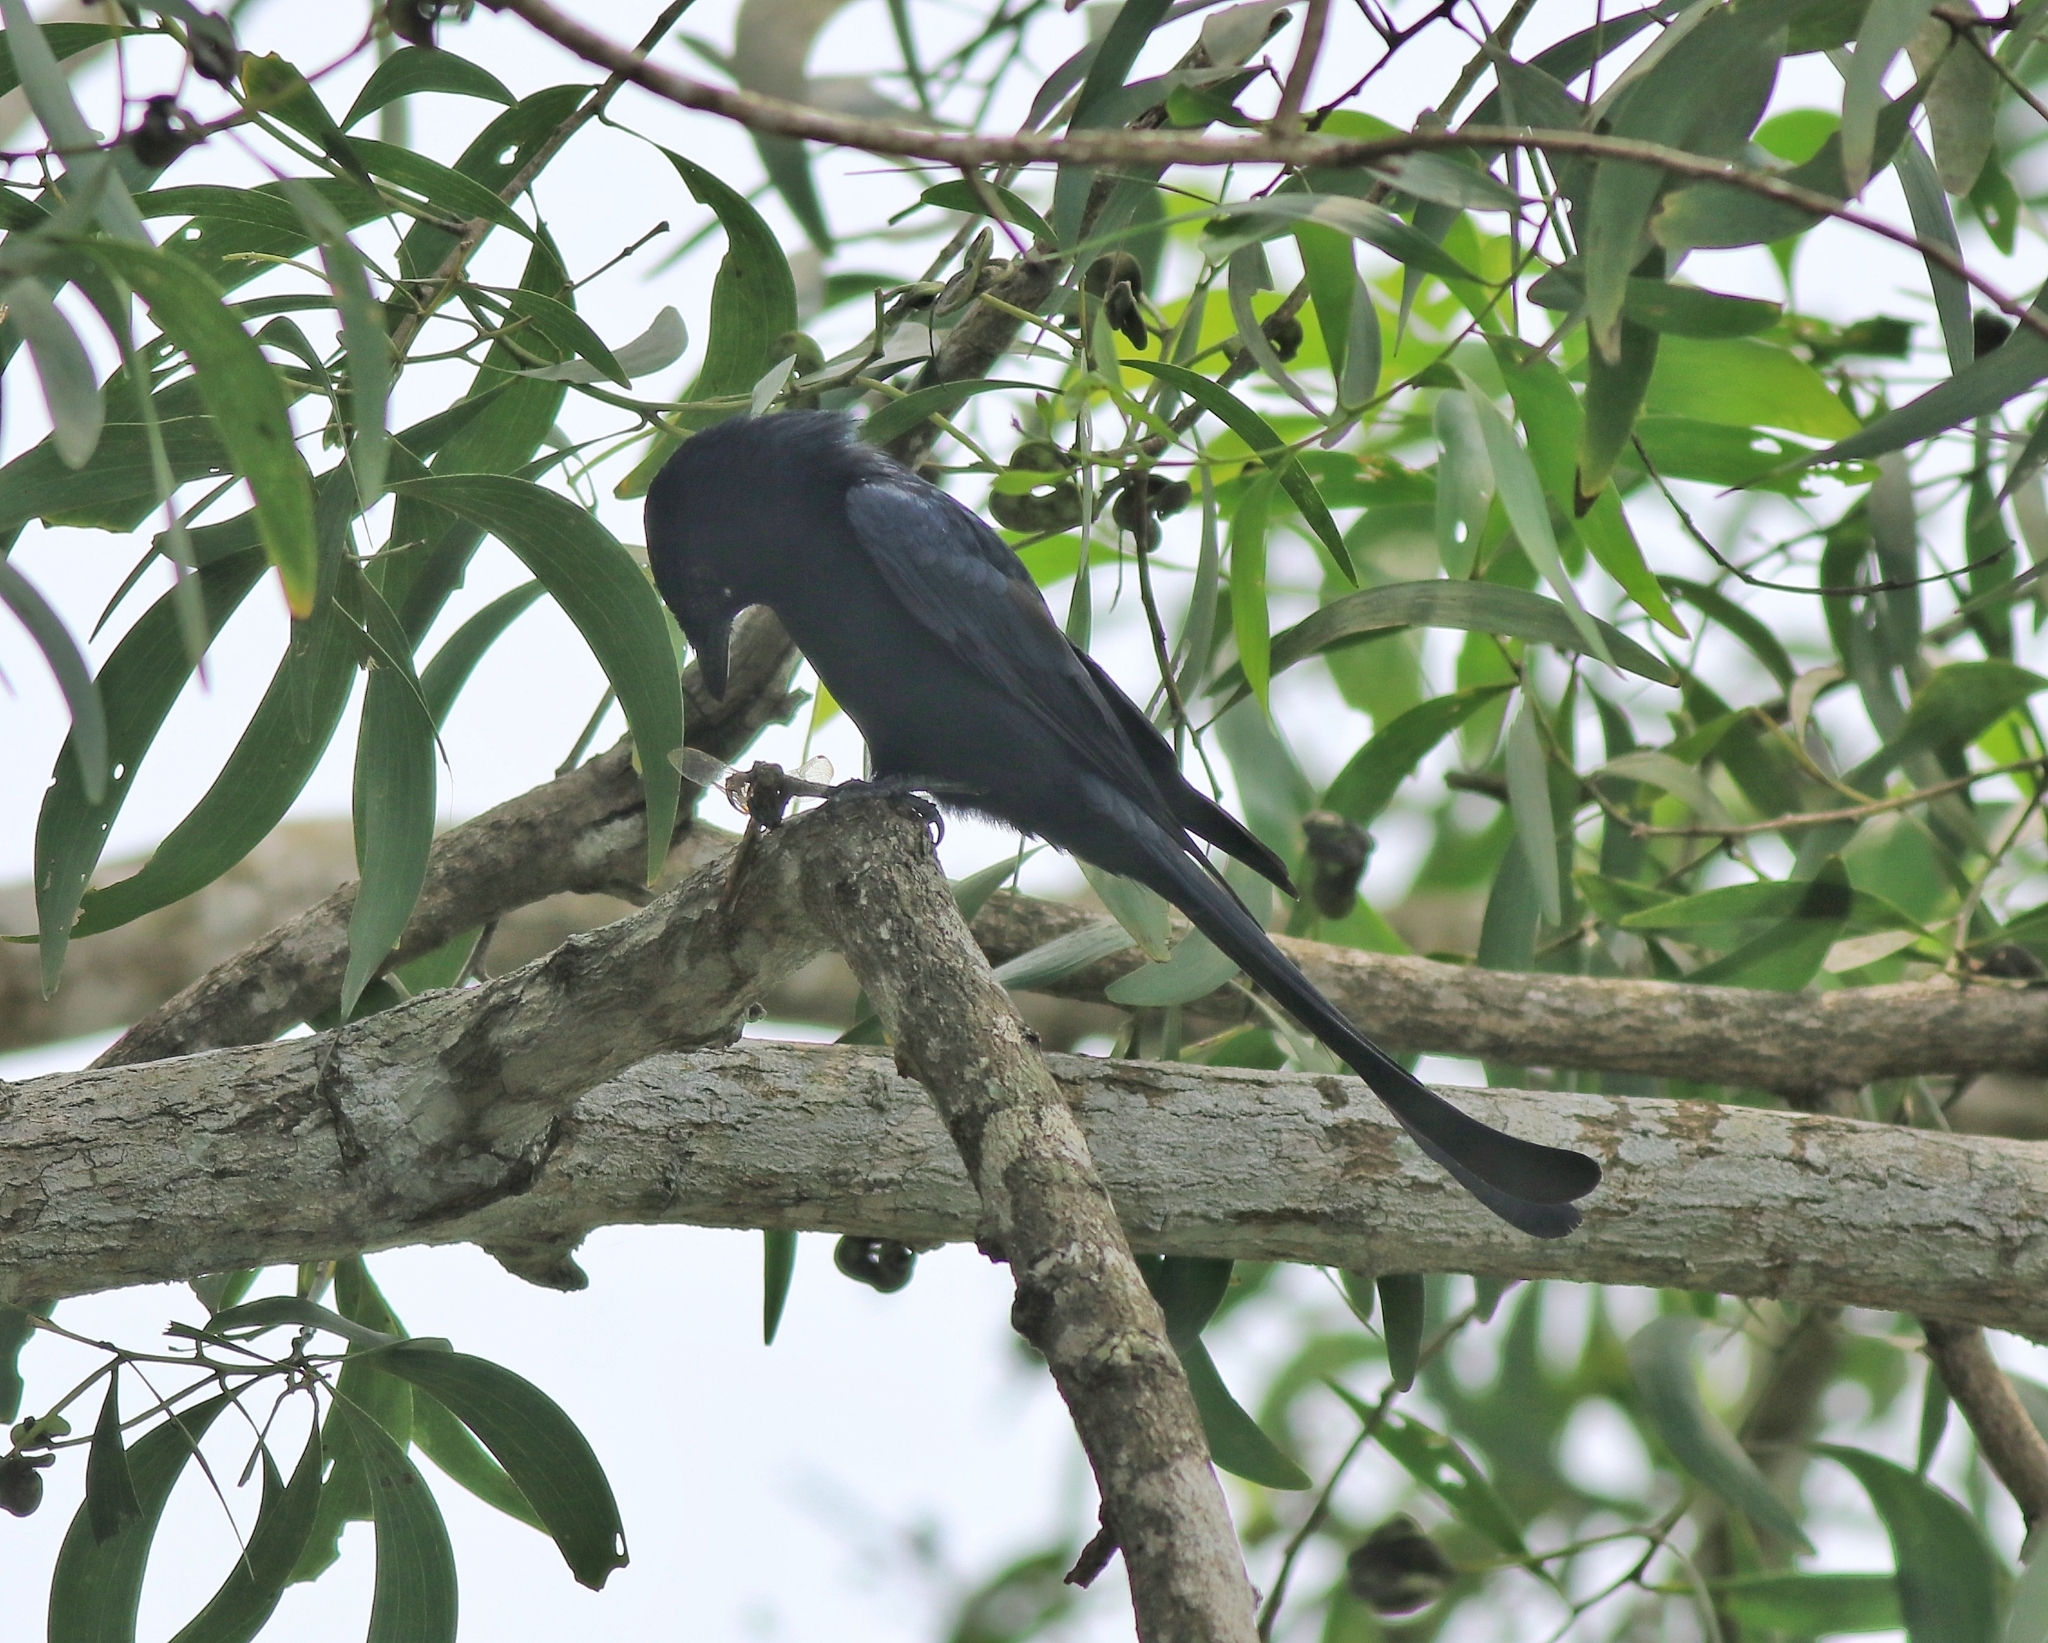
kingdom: Animalia
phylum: Chordata
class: Aves
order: Passeriformes
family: Dicruridae
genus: Dicrurus
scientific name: Dicrurus macrocercus
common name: Black drongo
